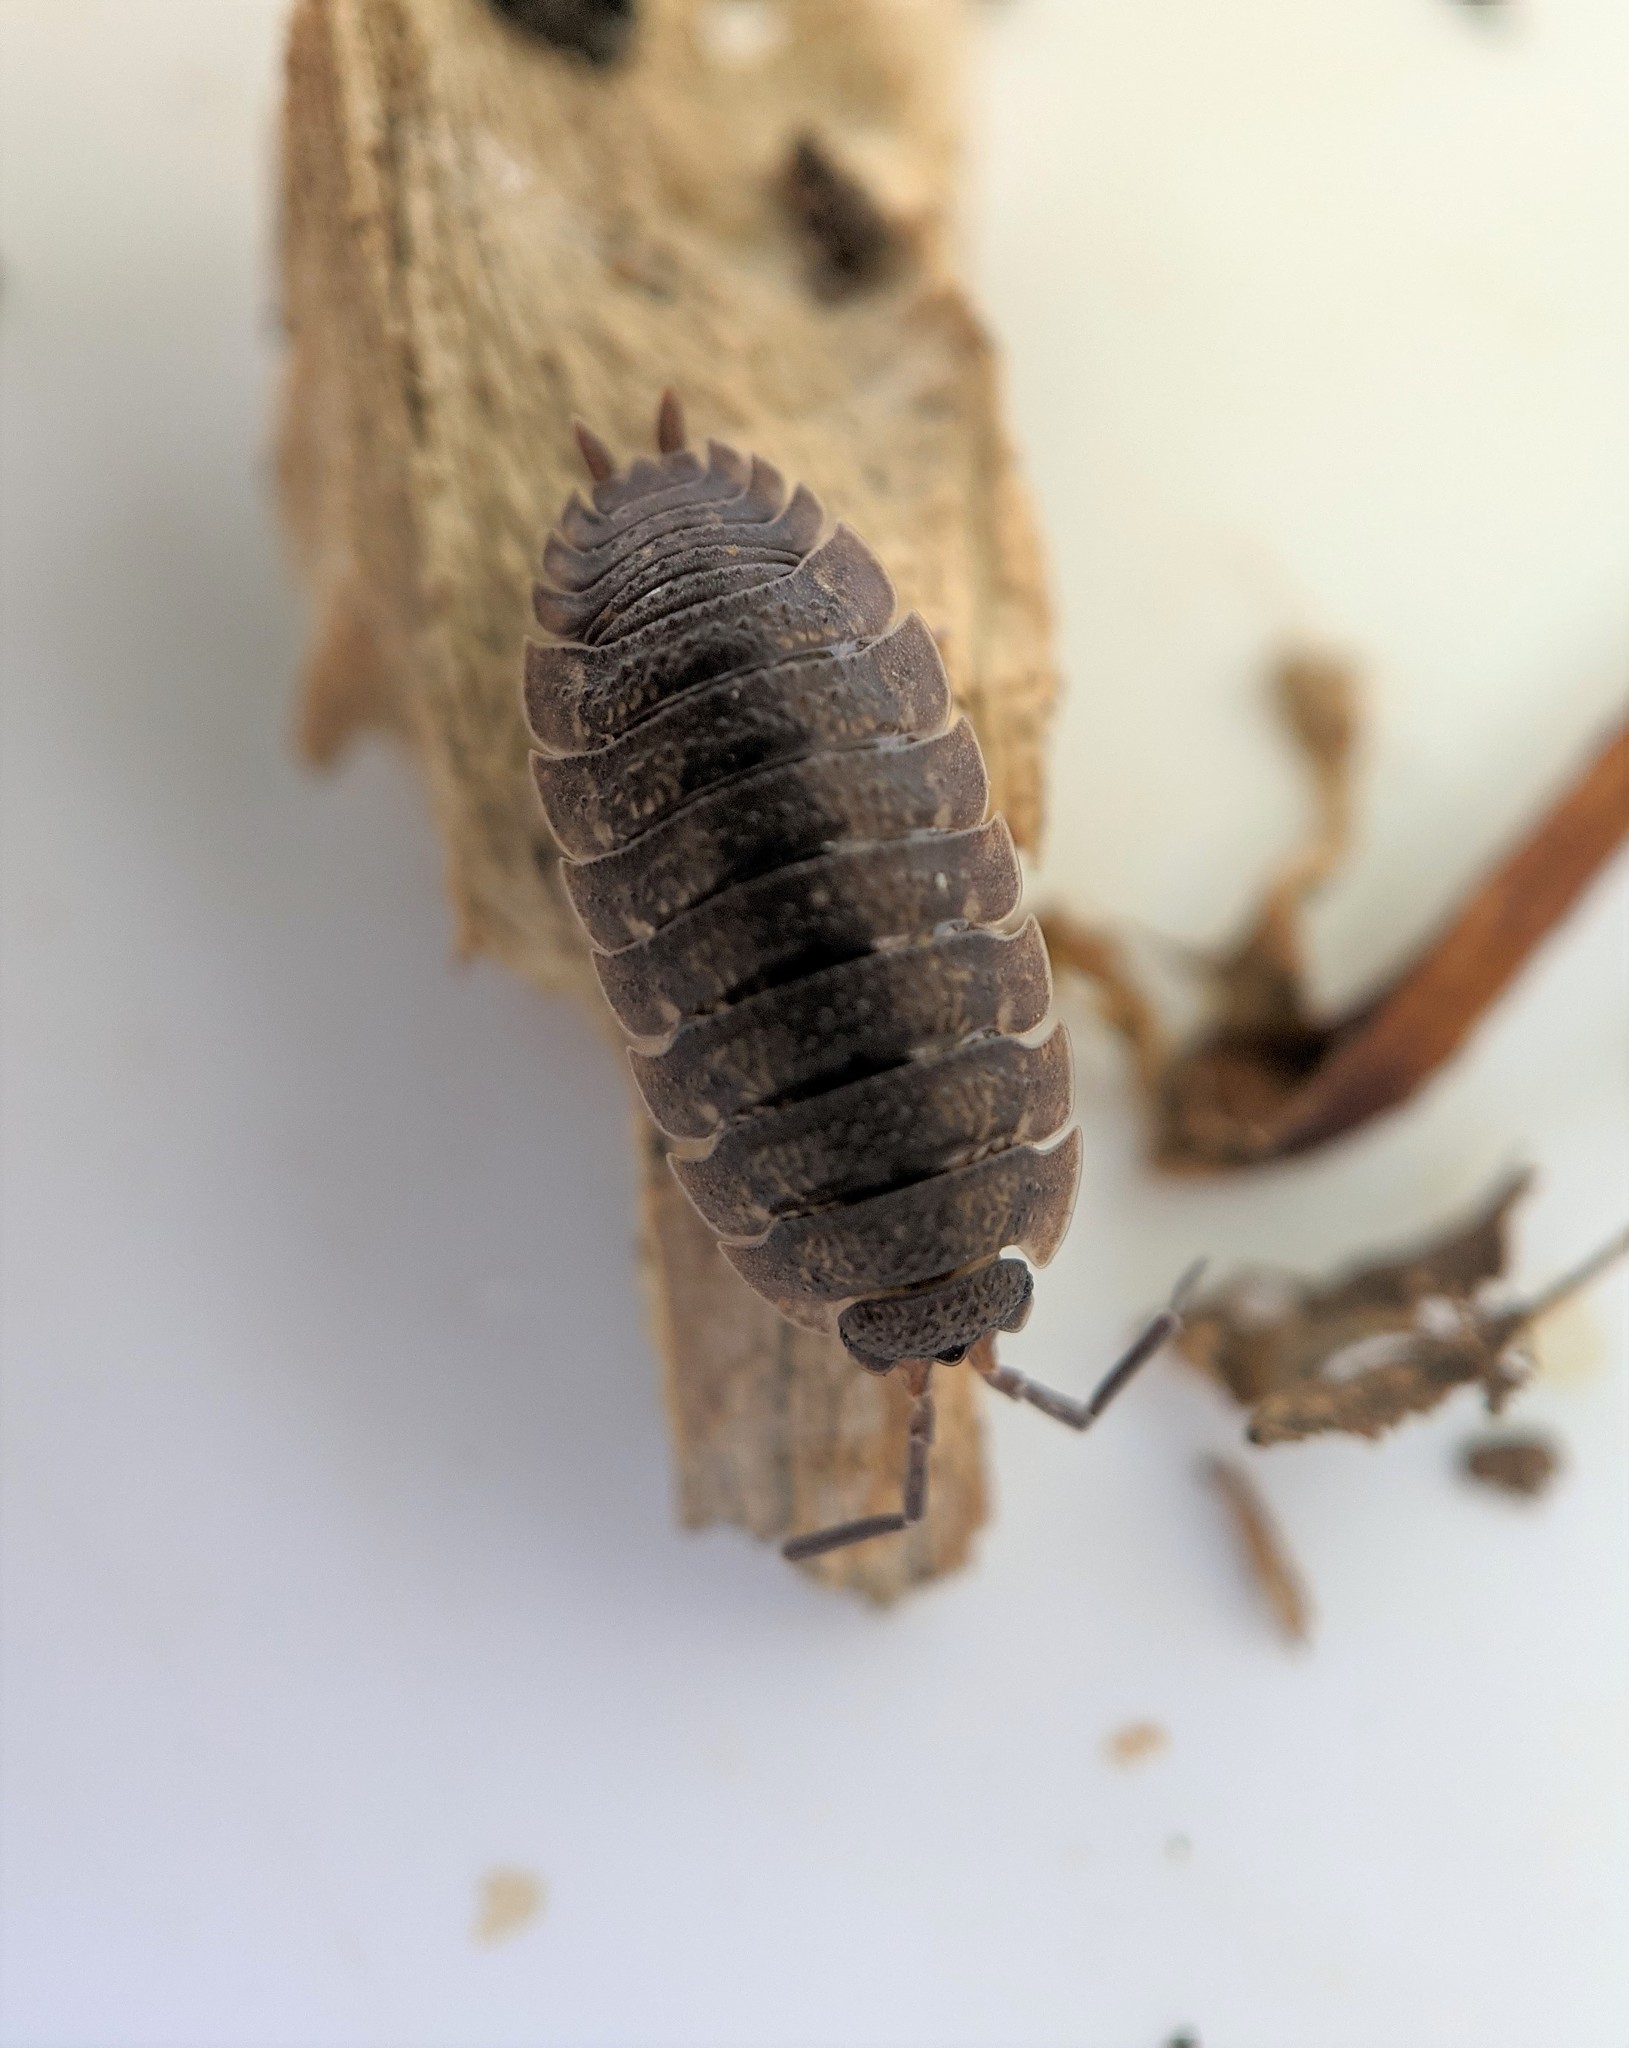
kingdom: Animalia
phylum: Arthropoda
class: Malacostraca
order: Isopoda
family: Porcellionidae
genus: Porcellio
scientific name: Porcellio scaber
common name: Common rough woodlouse
